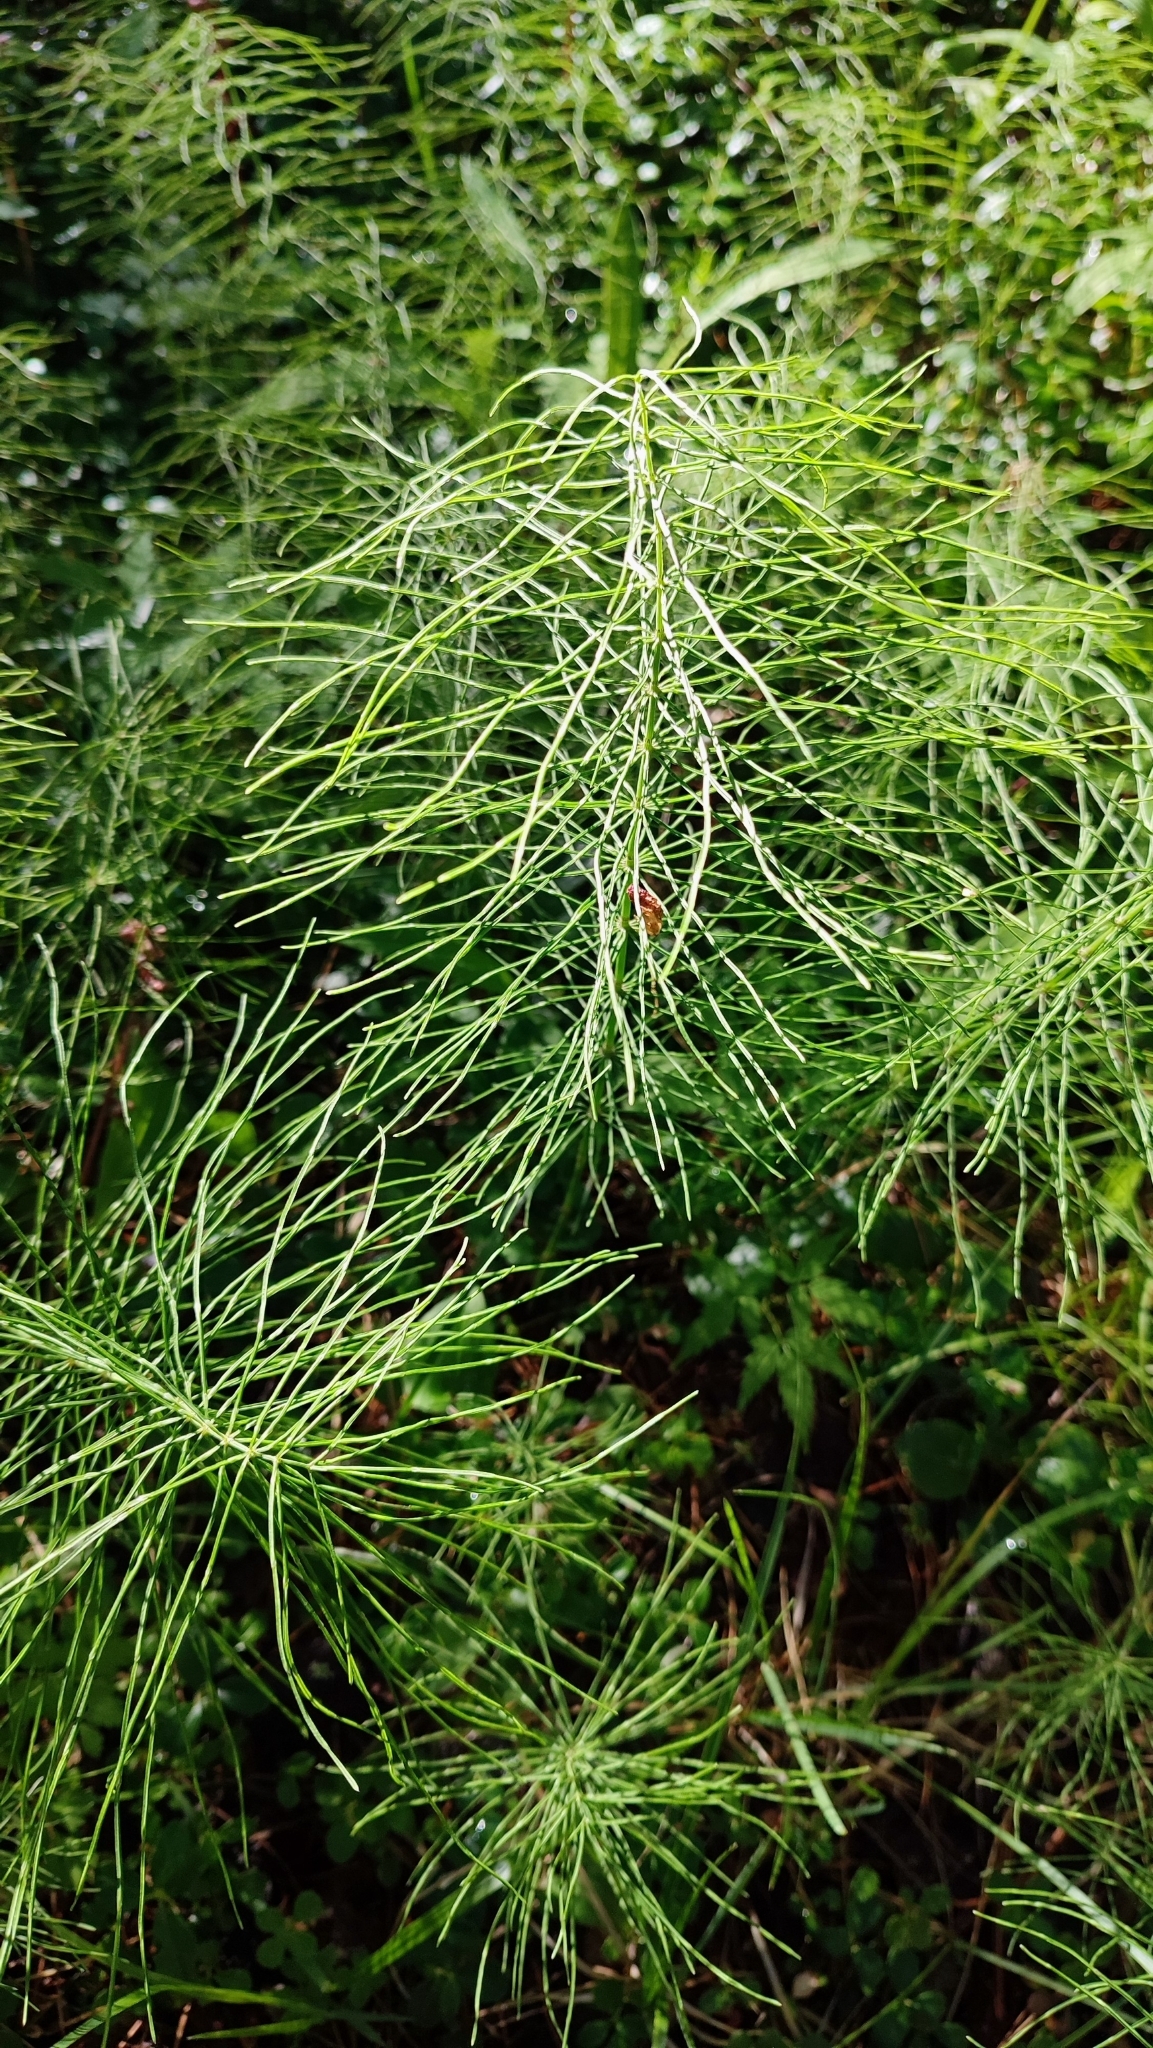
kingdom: Plantae
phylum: Tracheophyta
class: Polypodiopsida
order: Equisetales
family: Equisetaceae
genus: Equisetum
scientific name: Equisetum pratense
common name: Meadow horsetail
